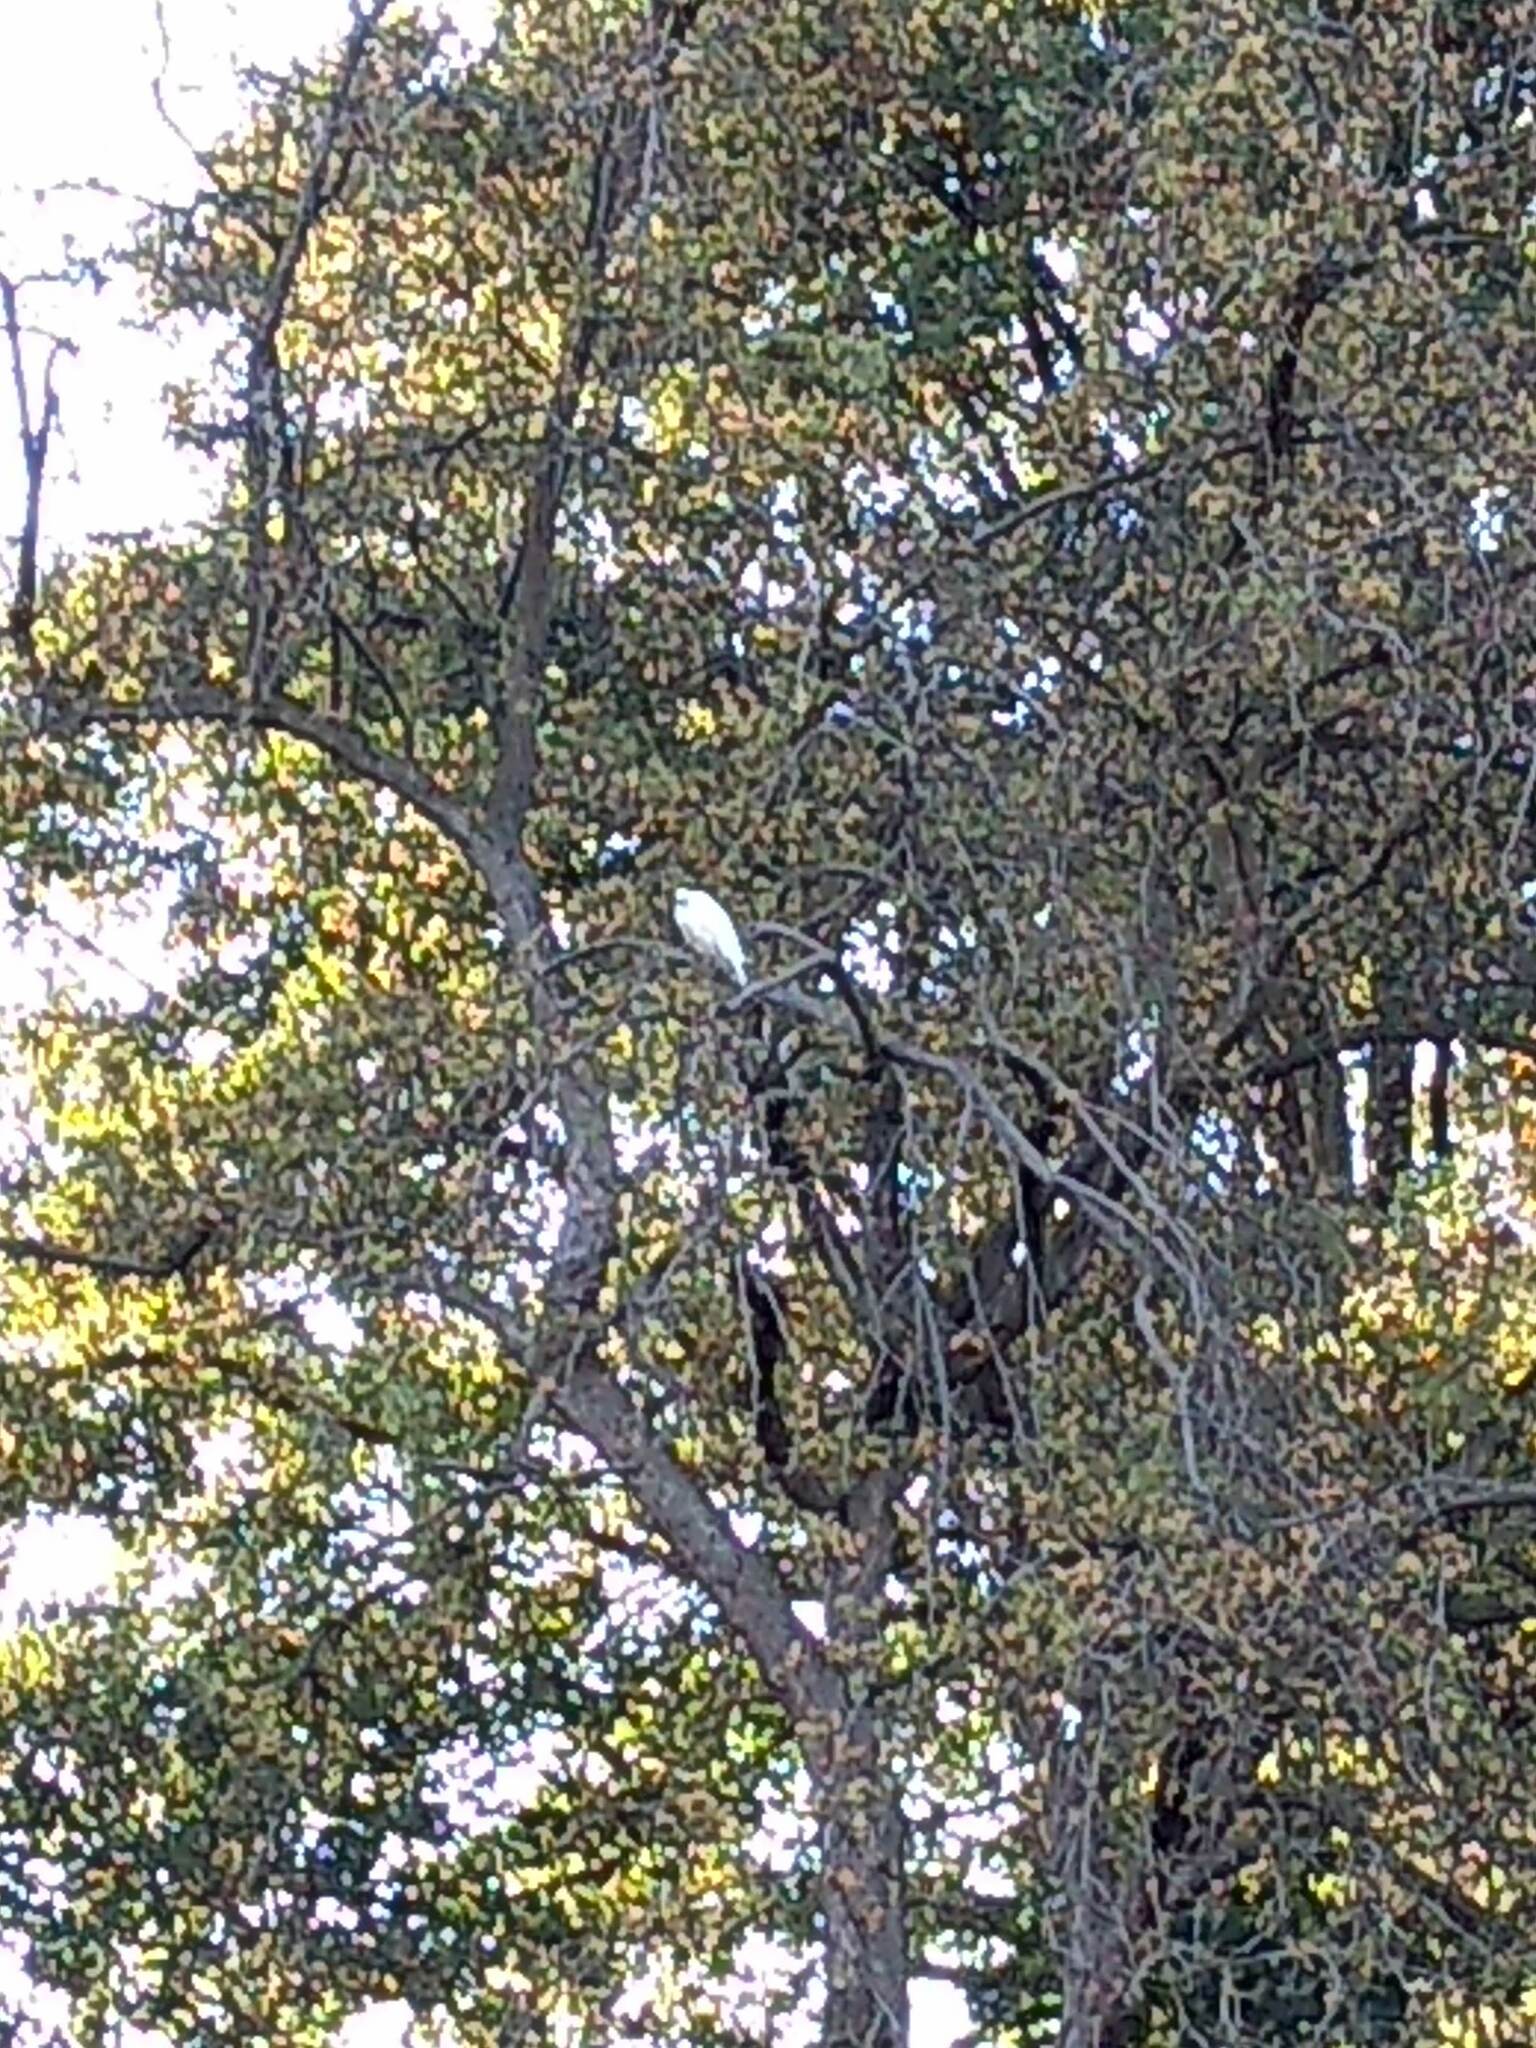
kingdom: Animalia
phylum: Chordata
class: Aves
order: Pelecaniformes
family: Ardeidae
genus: Egretta
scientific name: Egretta garzetta
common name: Little egret
